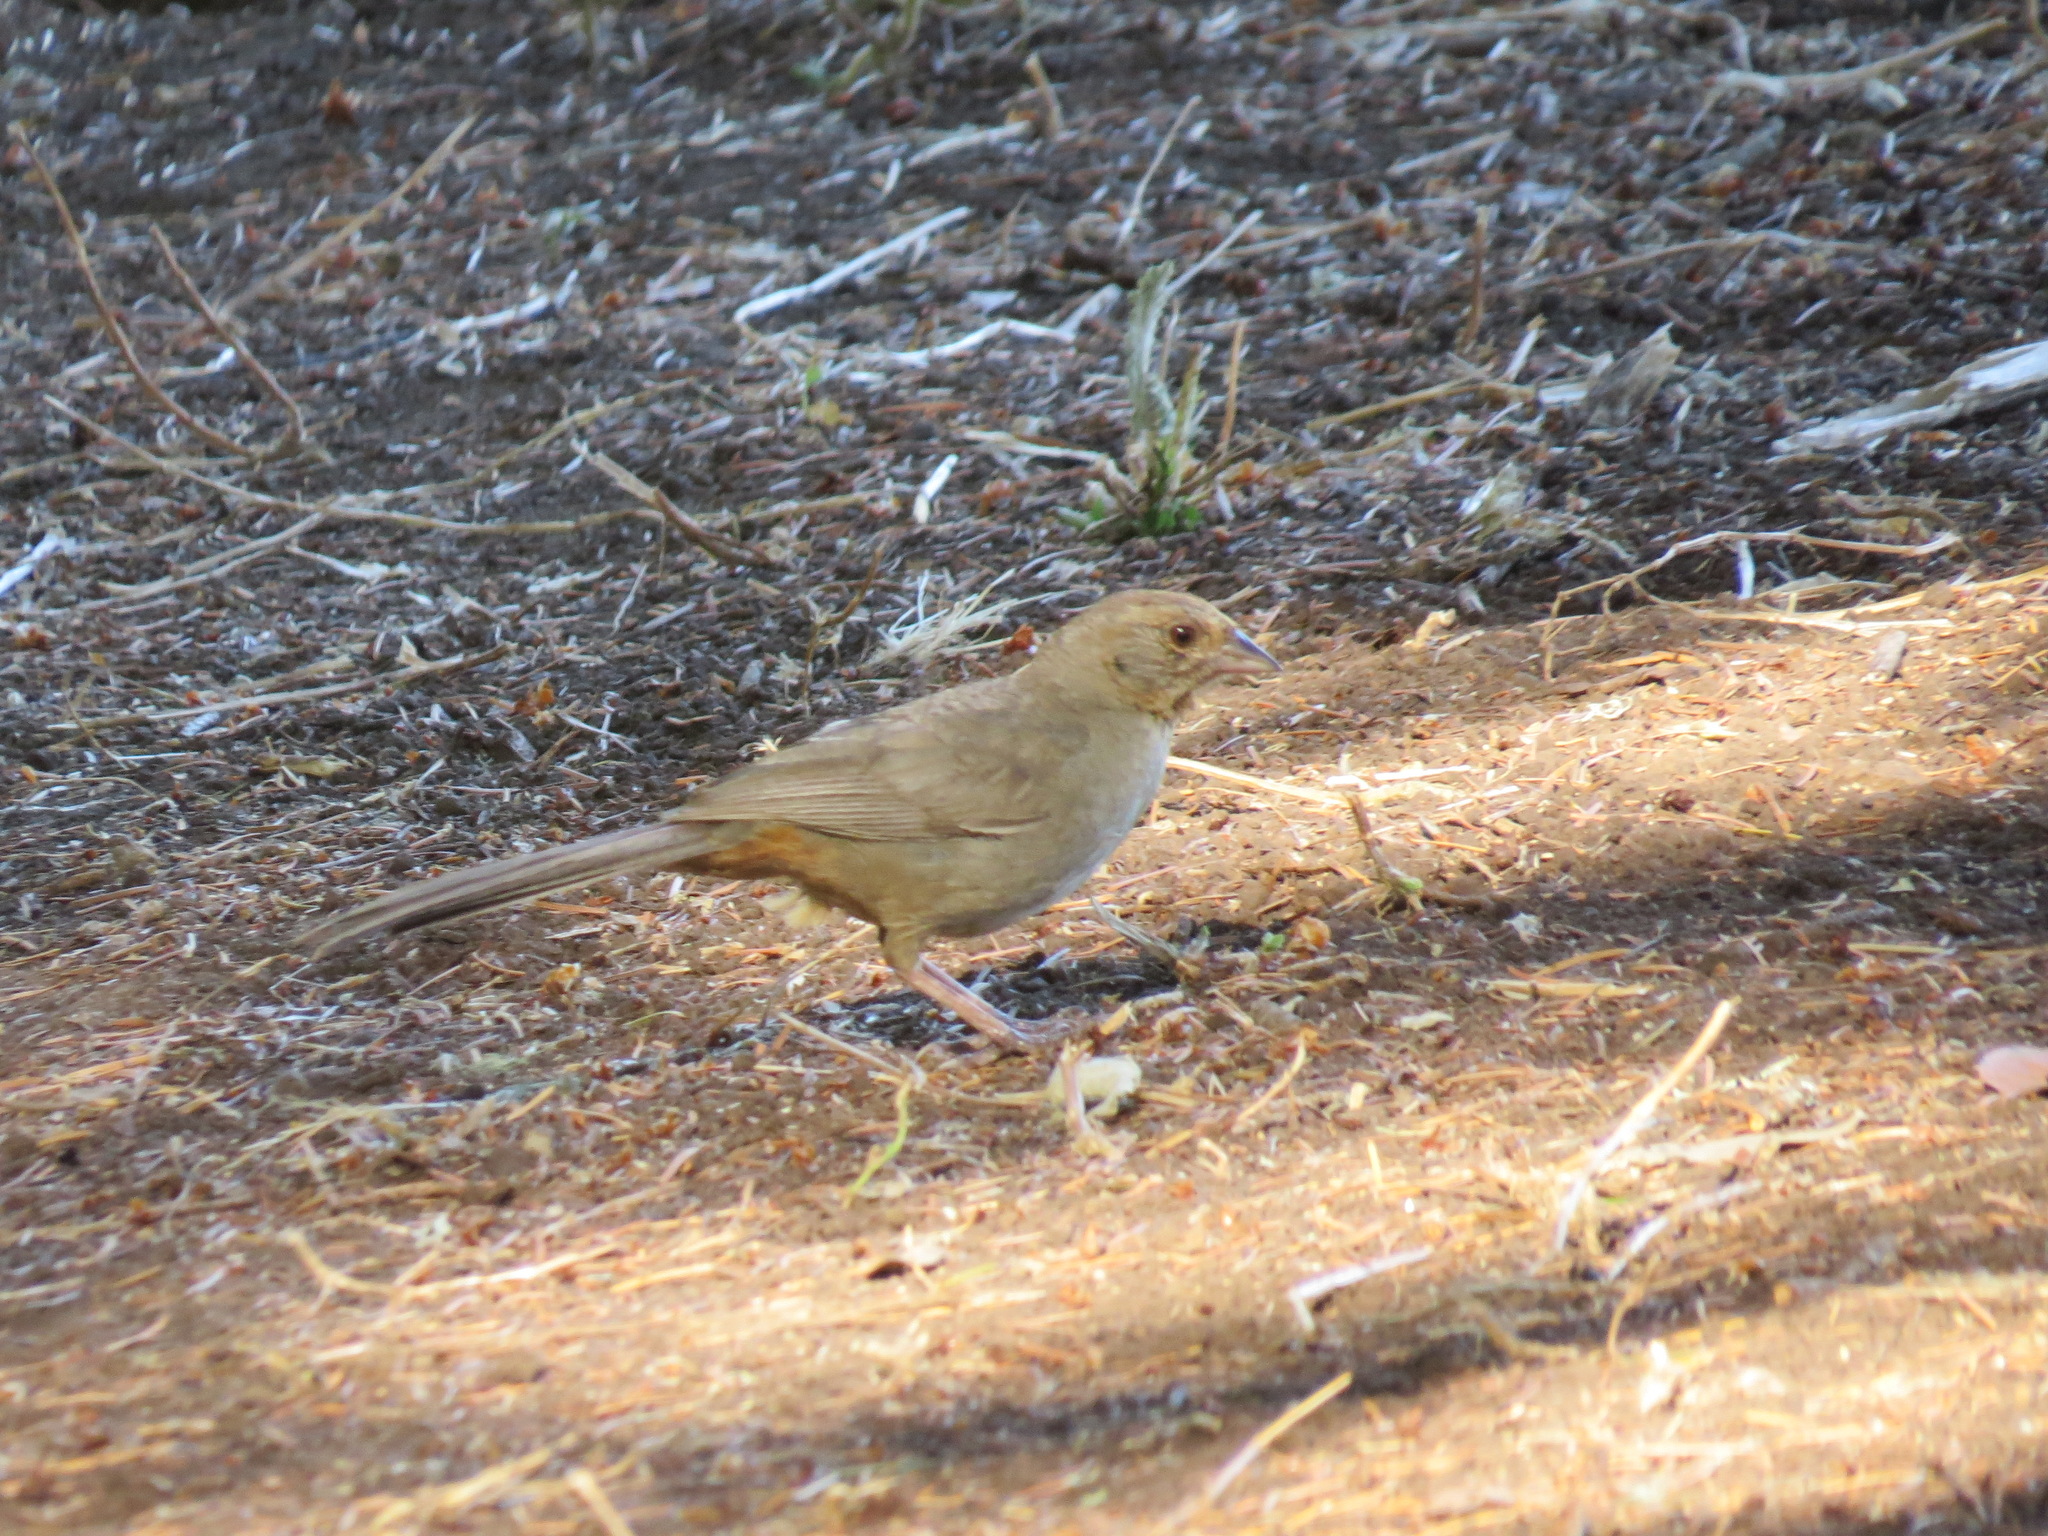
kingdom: Animalia
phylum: Chordata
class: Aves
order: Passeriformes
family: Passerellidae
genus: Melozone
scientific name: Melozone crissalis
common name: California towhee
